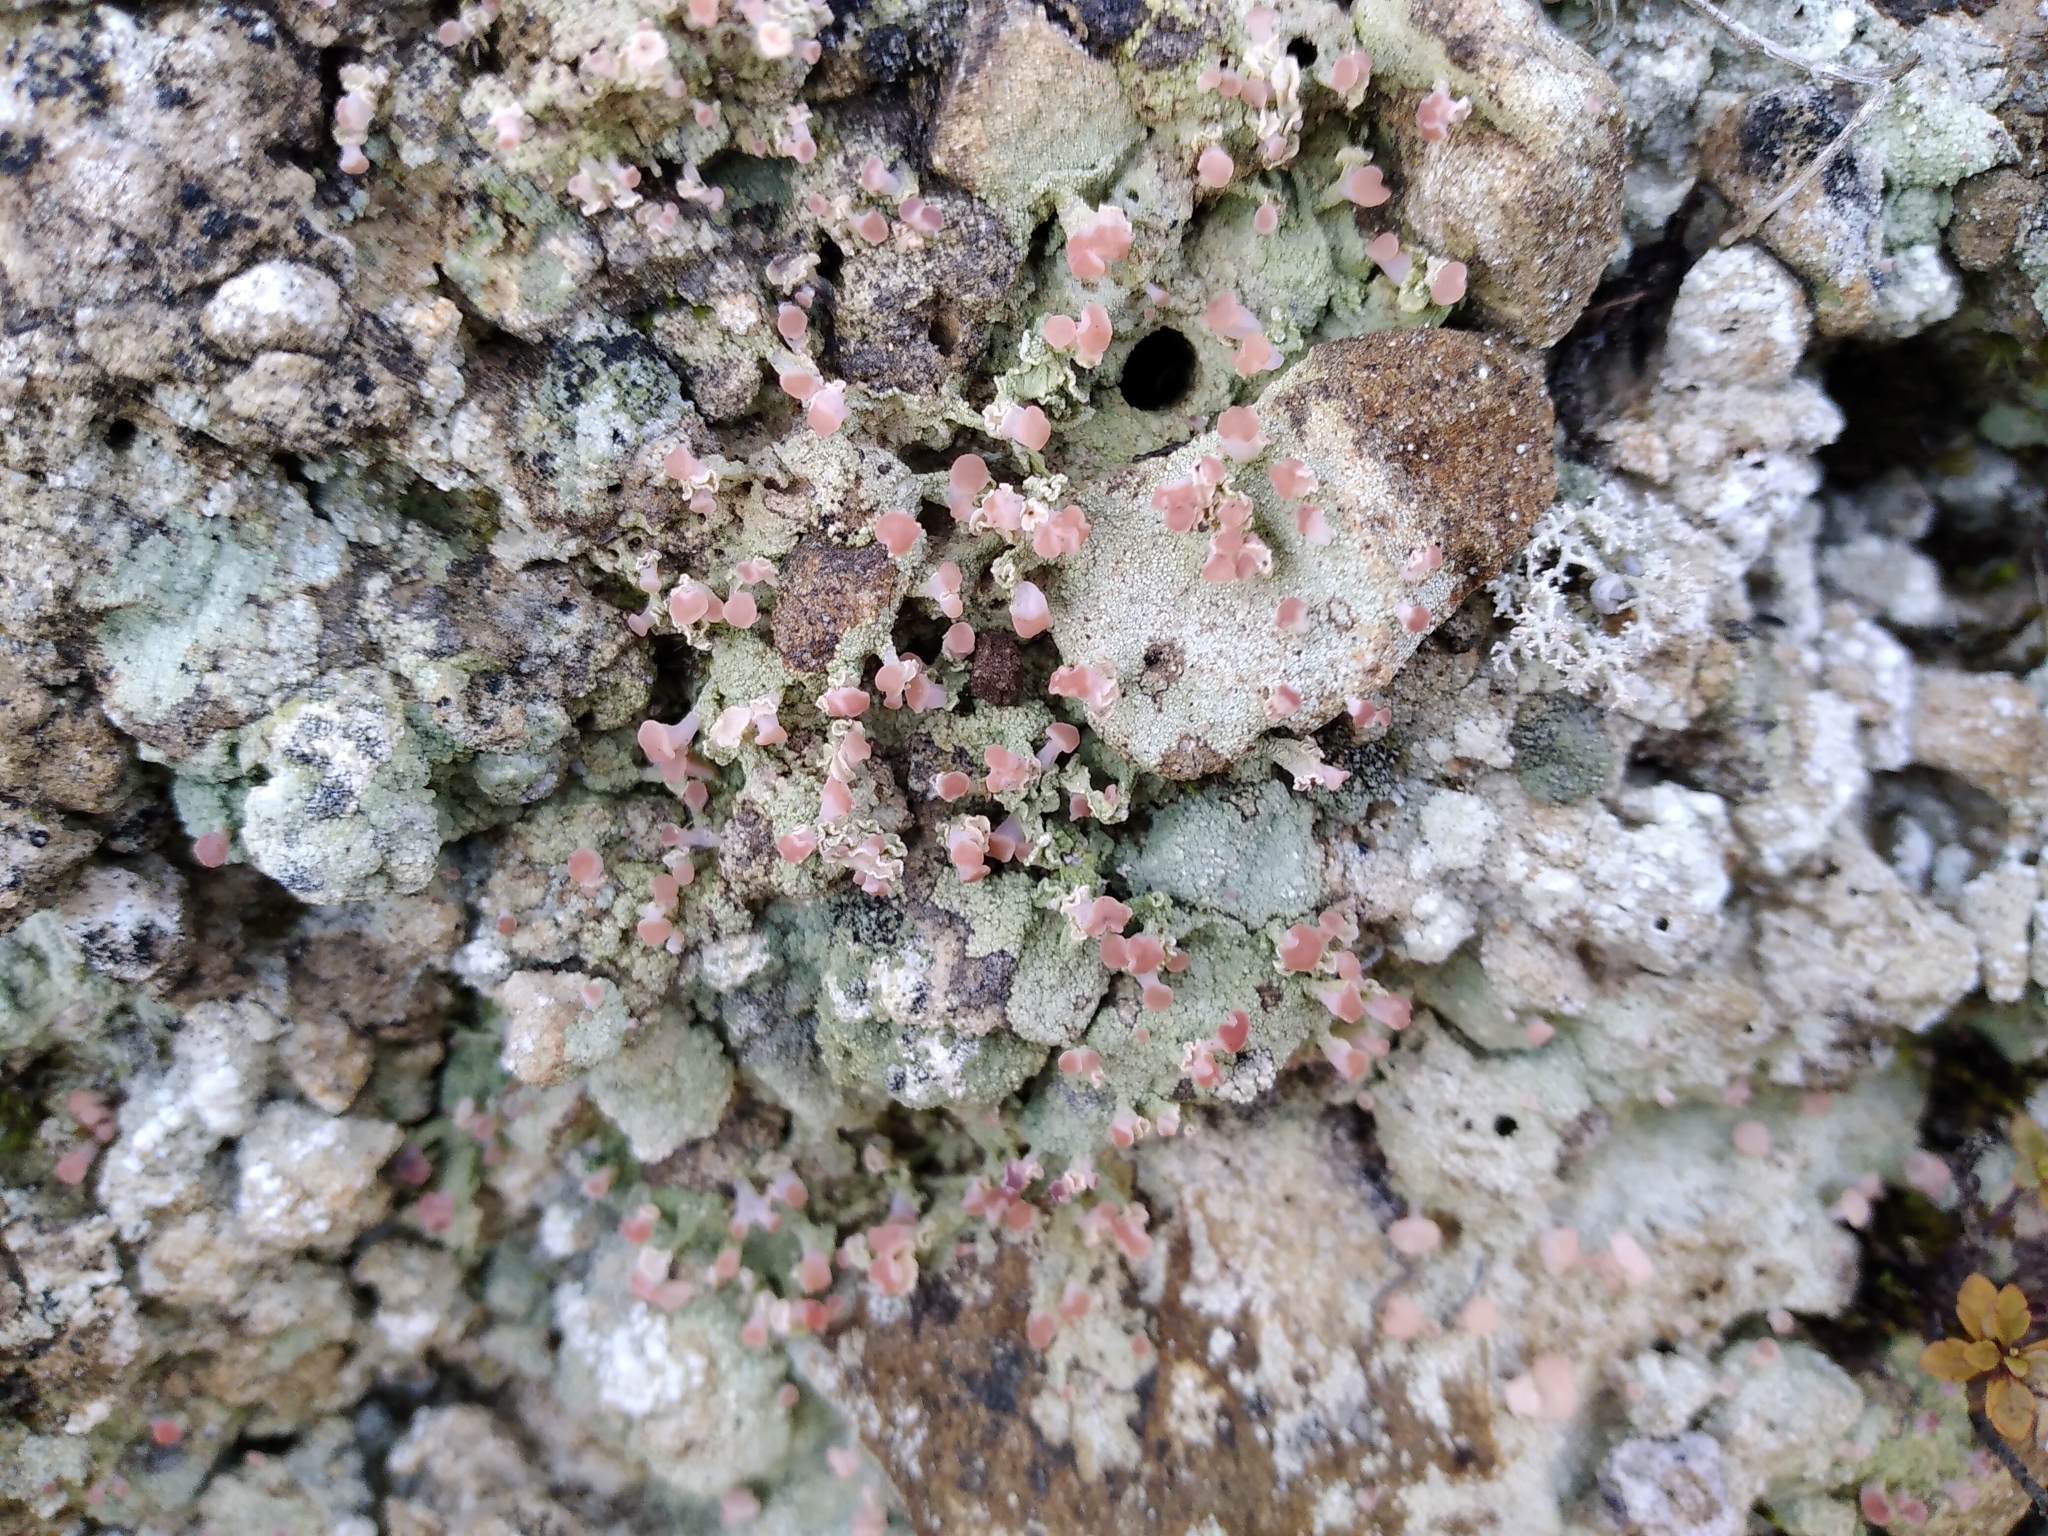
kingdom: Fungi
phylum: Ascomycota
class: Lecanoromycetes
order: Baeomycetales
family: Baeomycetaceae
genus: Baeomyces
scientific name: Baeomyces heteromorphus
